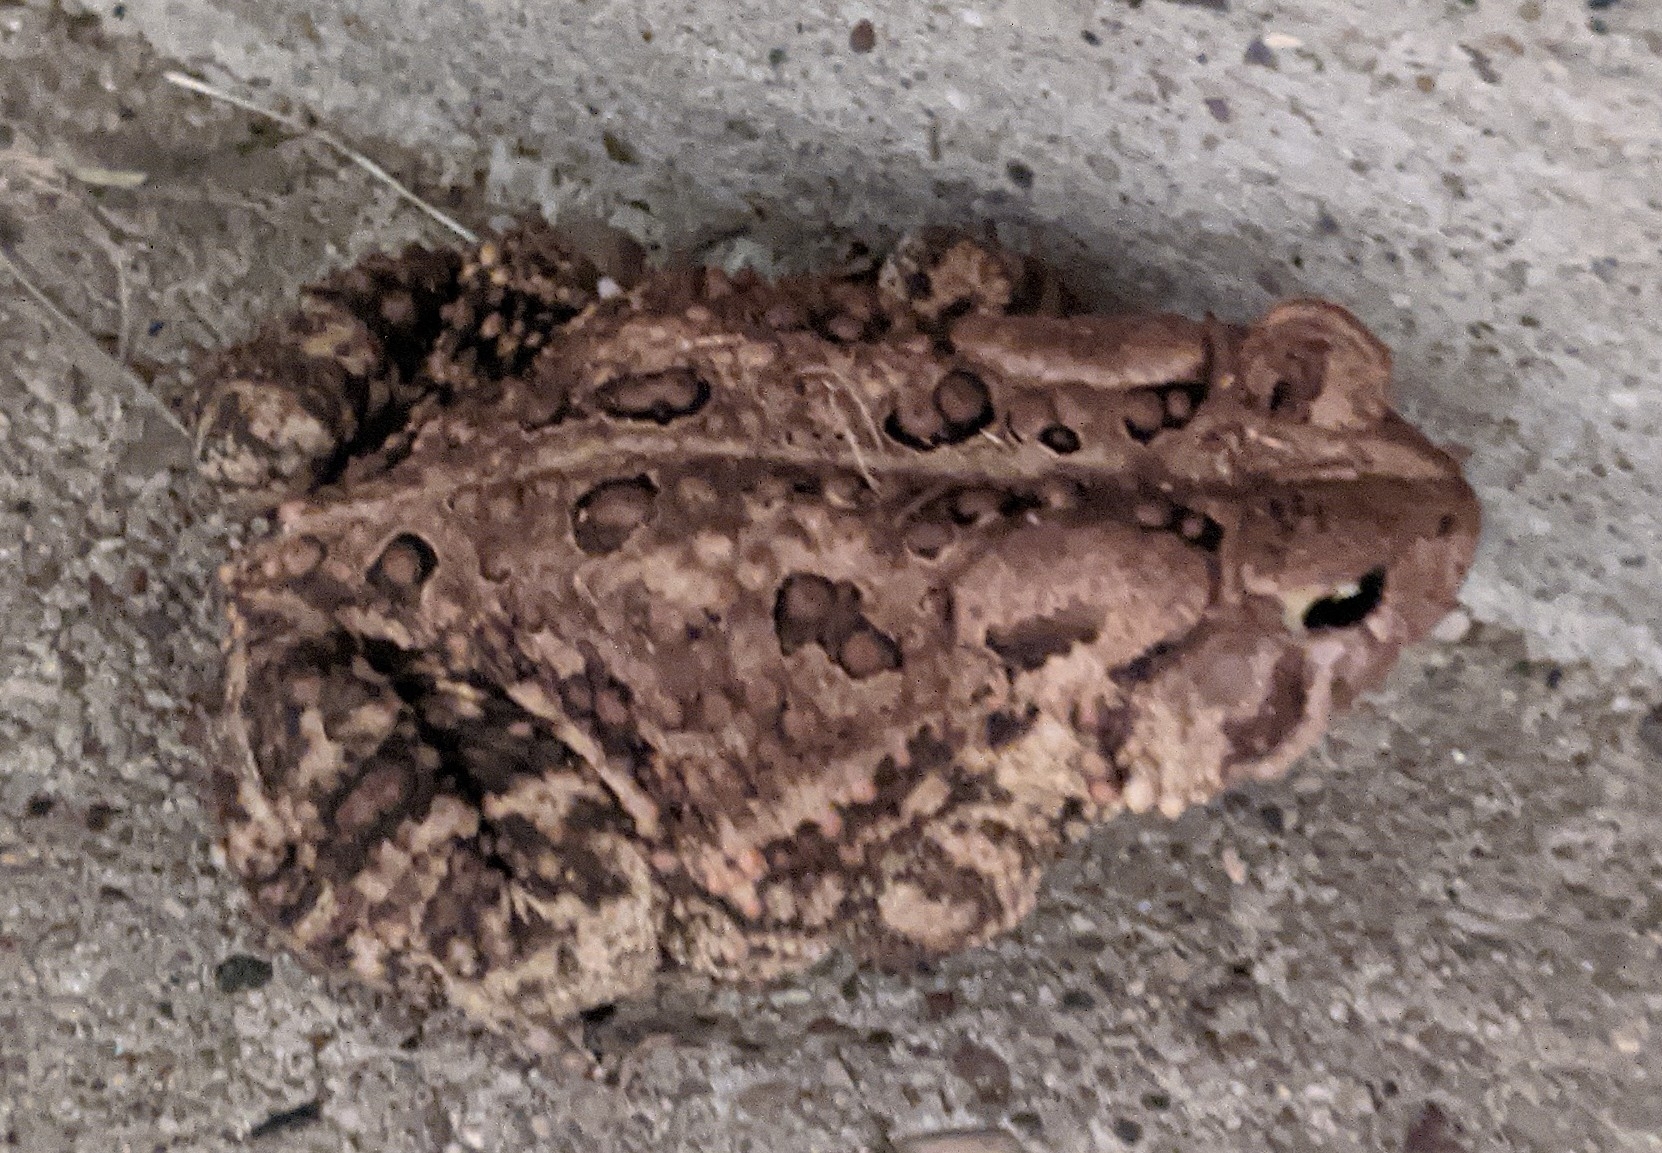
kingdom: Animalia
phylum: Chordata
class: Amphibia
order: Anura
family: Bufonidae
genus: Anaxyrus
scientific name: Anaxyrus americanus
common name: American toad
